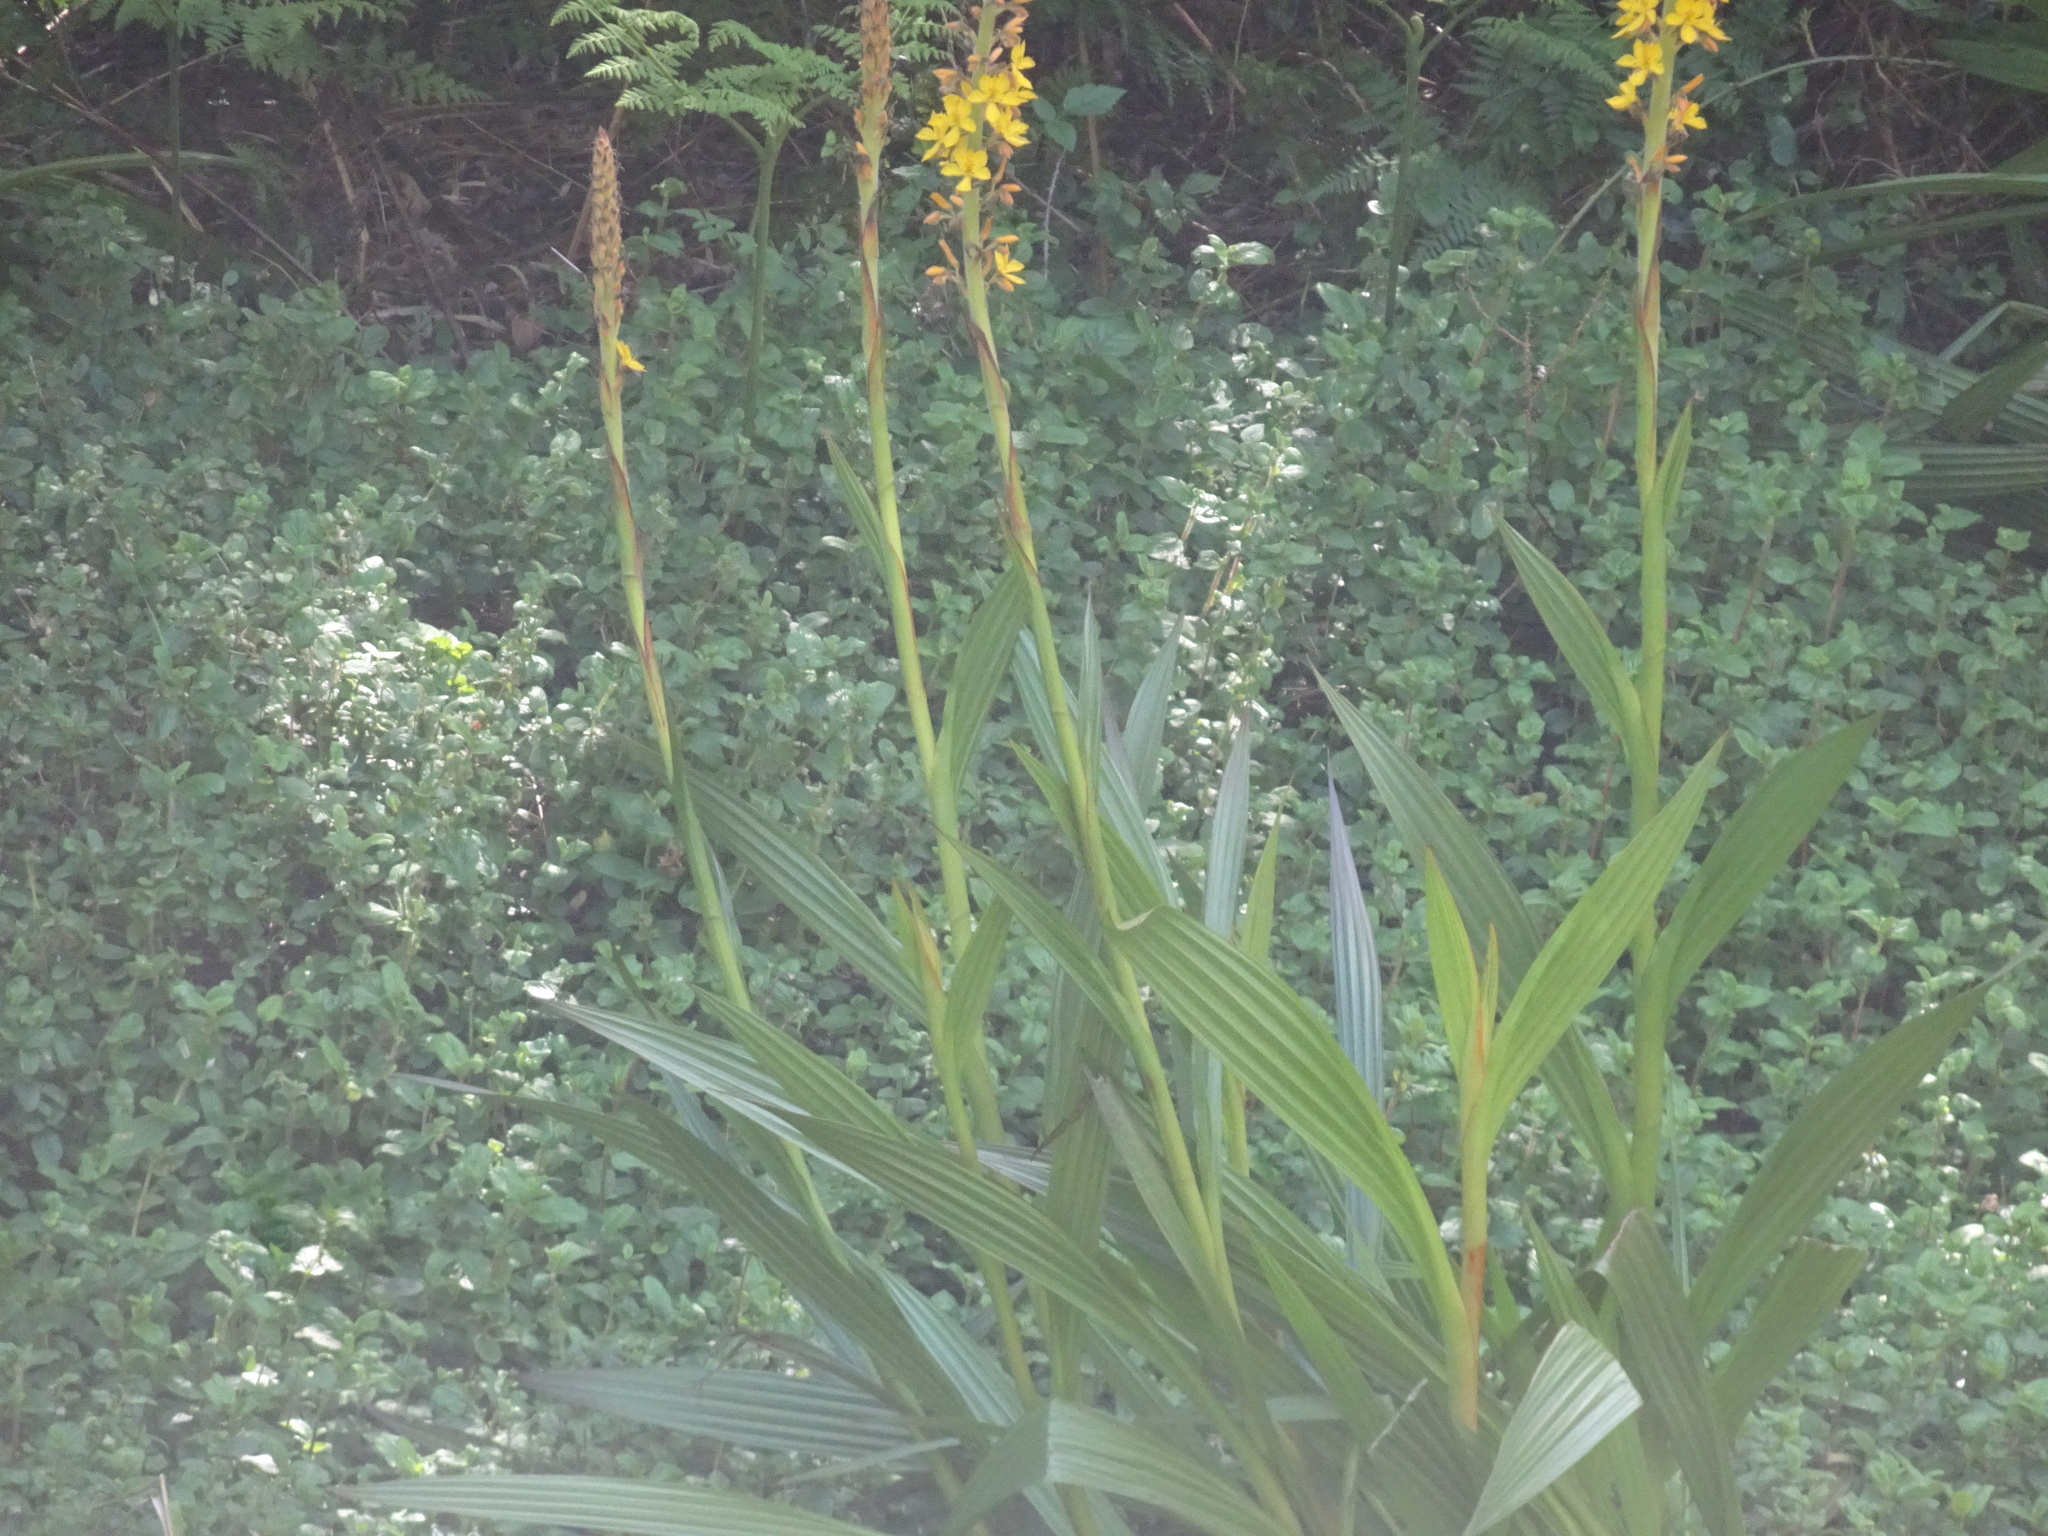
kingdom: Plantae
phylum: Tracheophyta
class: Liliopsida
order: Commelinales
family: Haemodoraceae
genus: Wachendorfia
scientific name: Wachendorfia thyrsiflora
